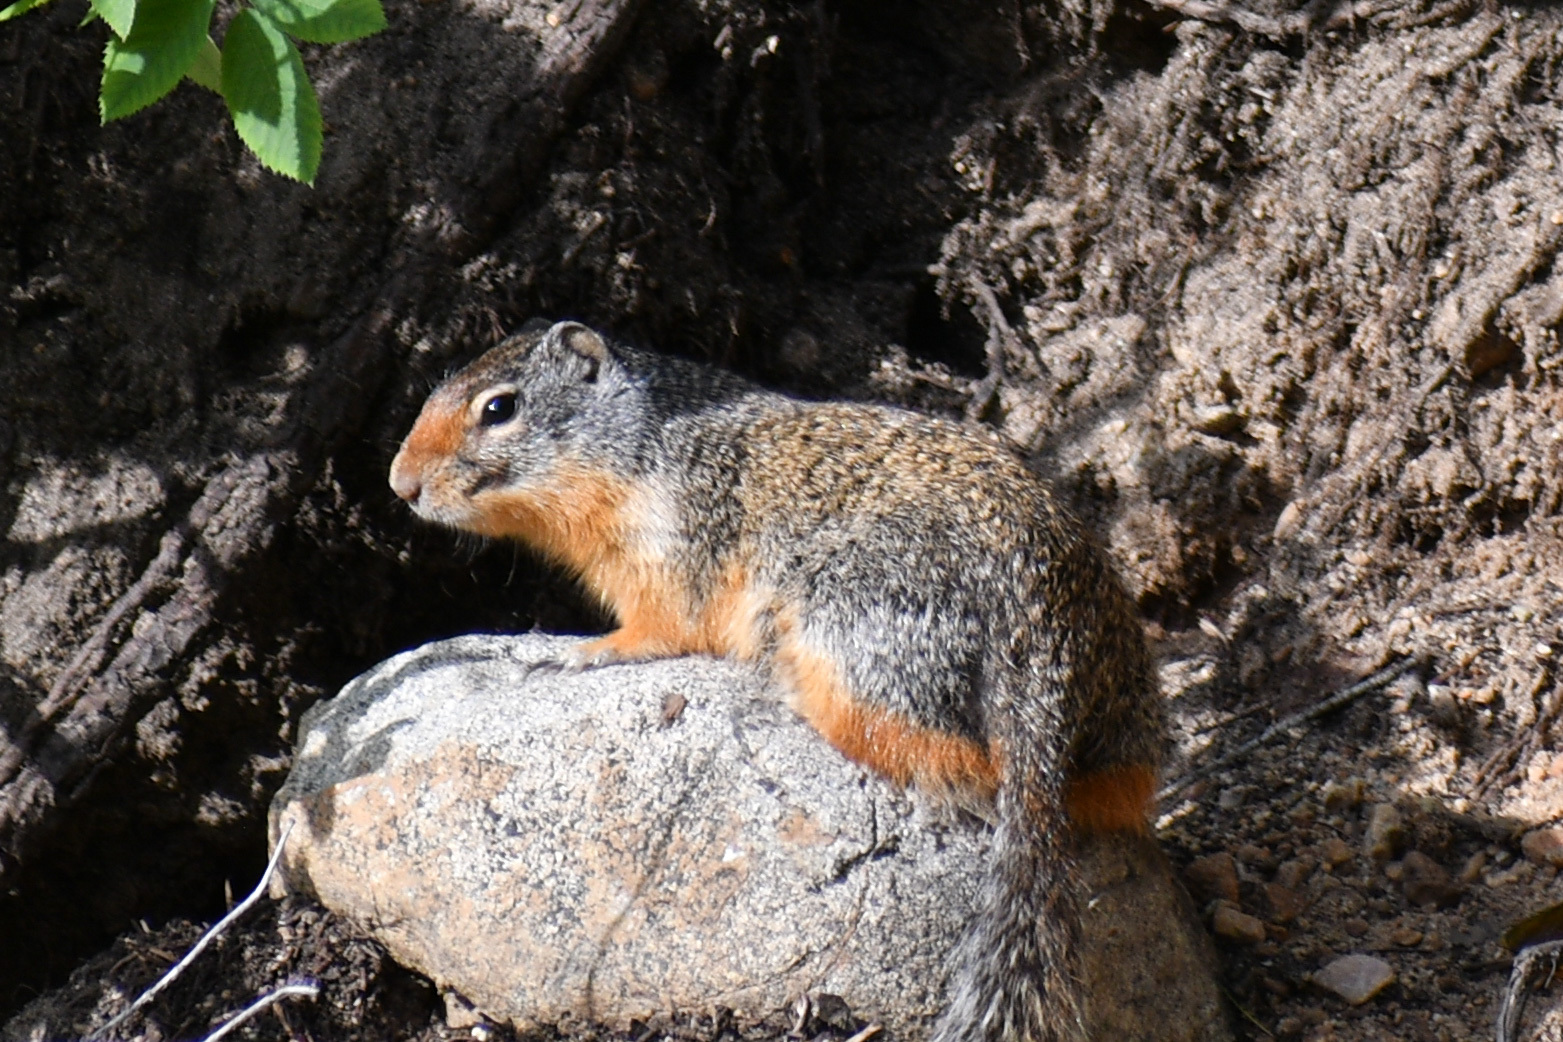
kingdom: Animalia
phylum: Chordata
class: Mammalia
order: Rodentia
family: Sciuridae
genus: Urocitellus
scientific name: Urocitellus columbianus
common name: Columbian ground squirrel
